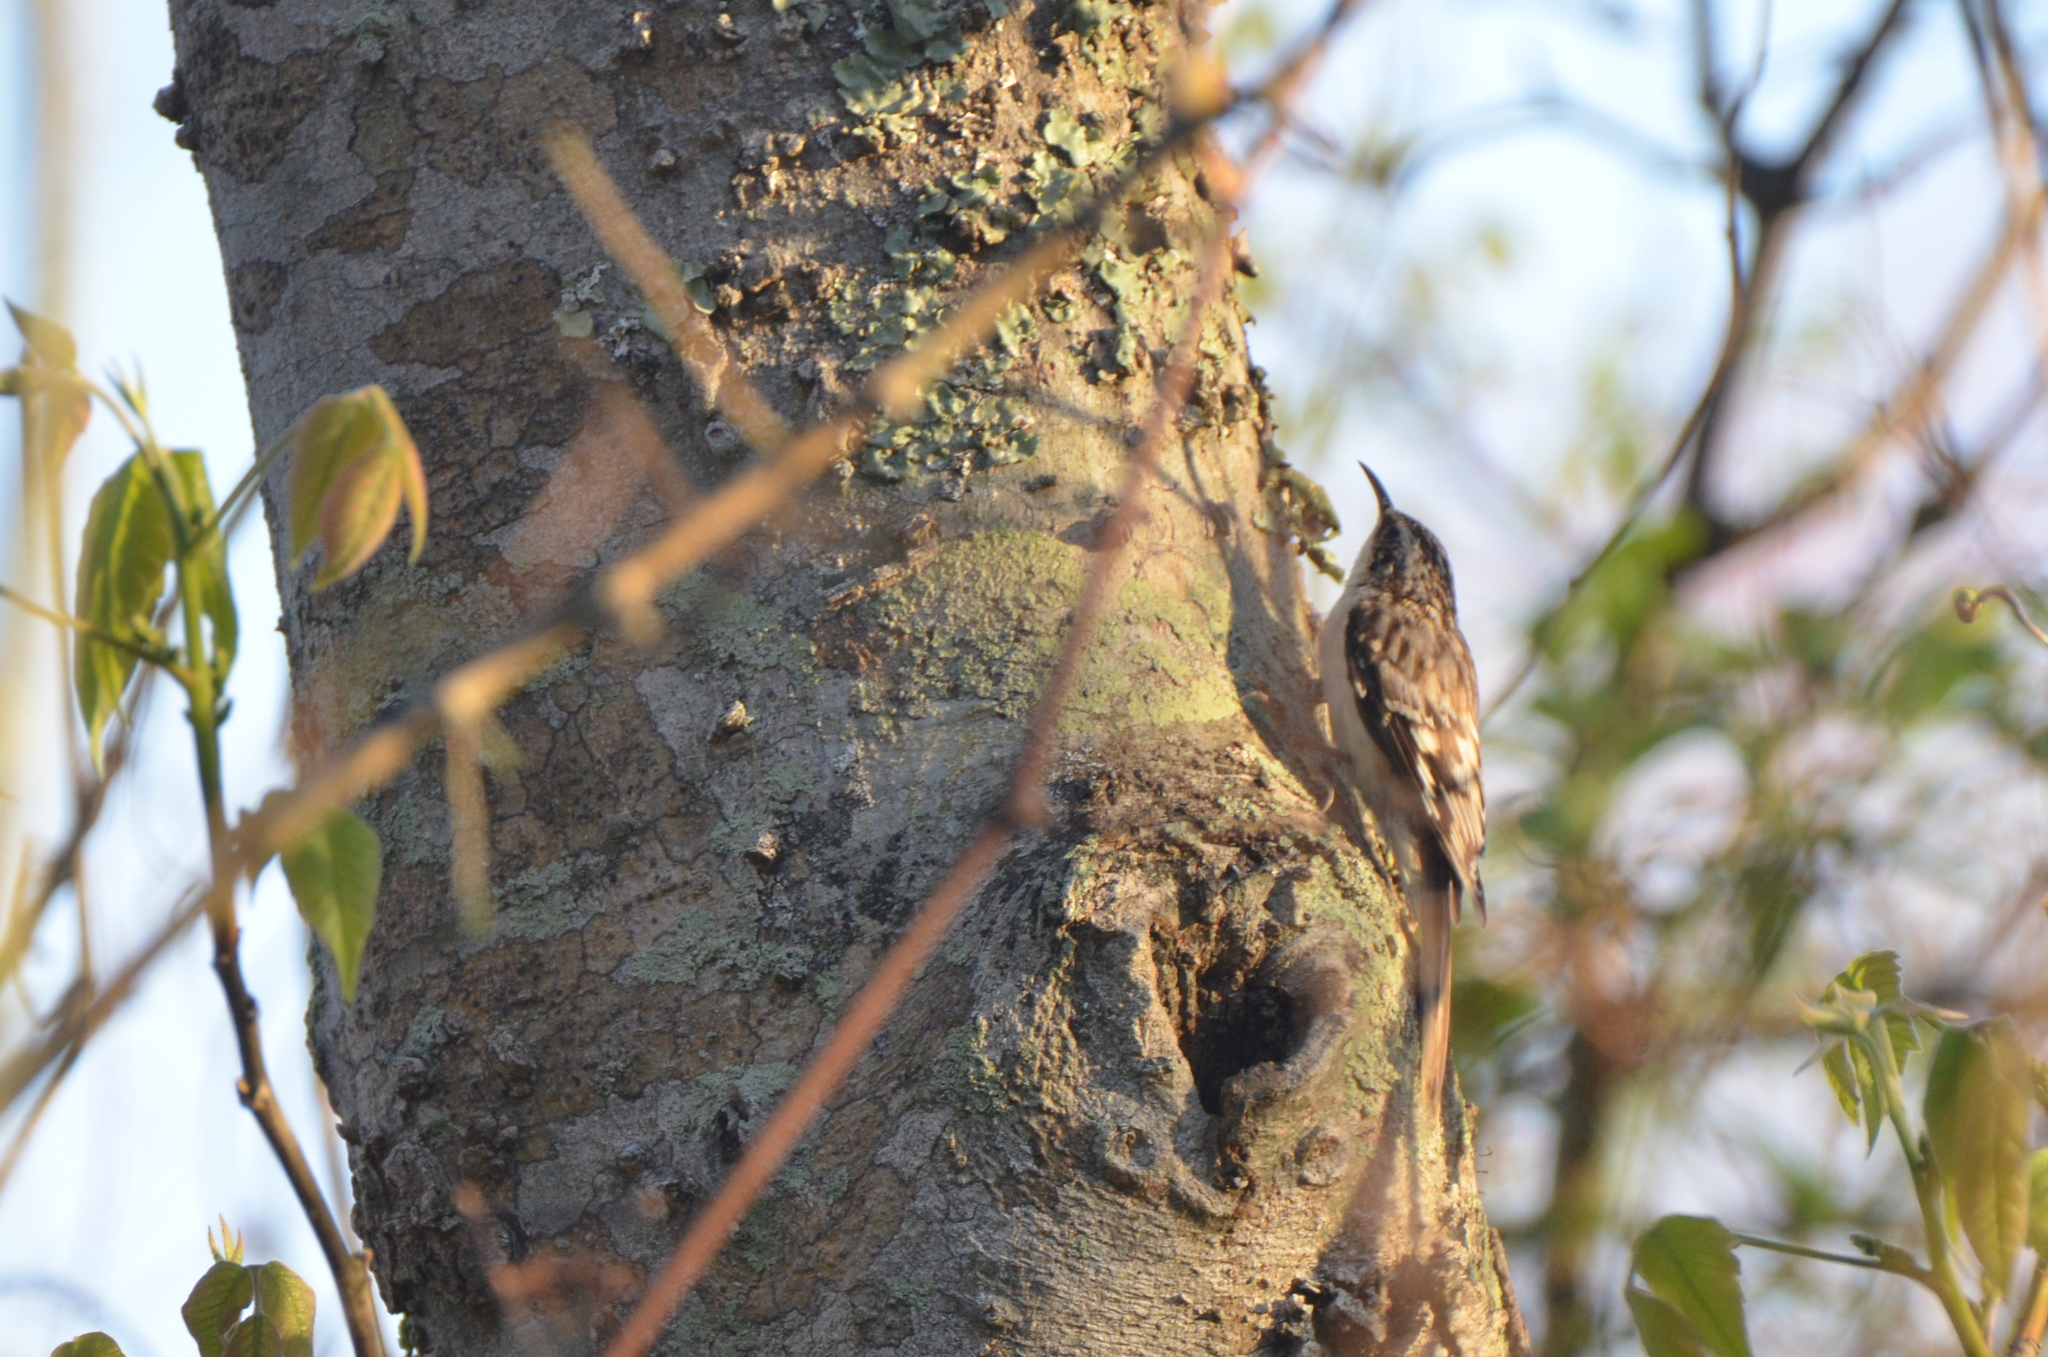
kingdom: Animalia
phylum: Chordata
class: Aves
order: Passeriformes
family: Certhiidae
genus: Certhia
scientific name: Certhia americana
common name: Brown creeper
